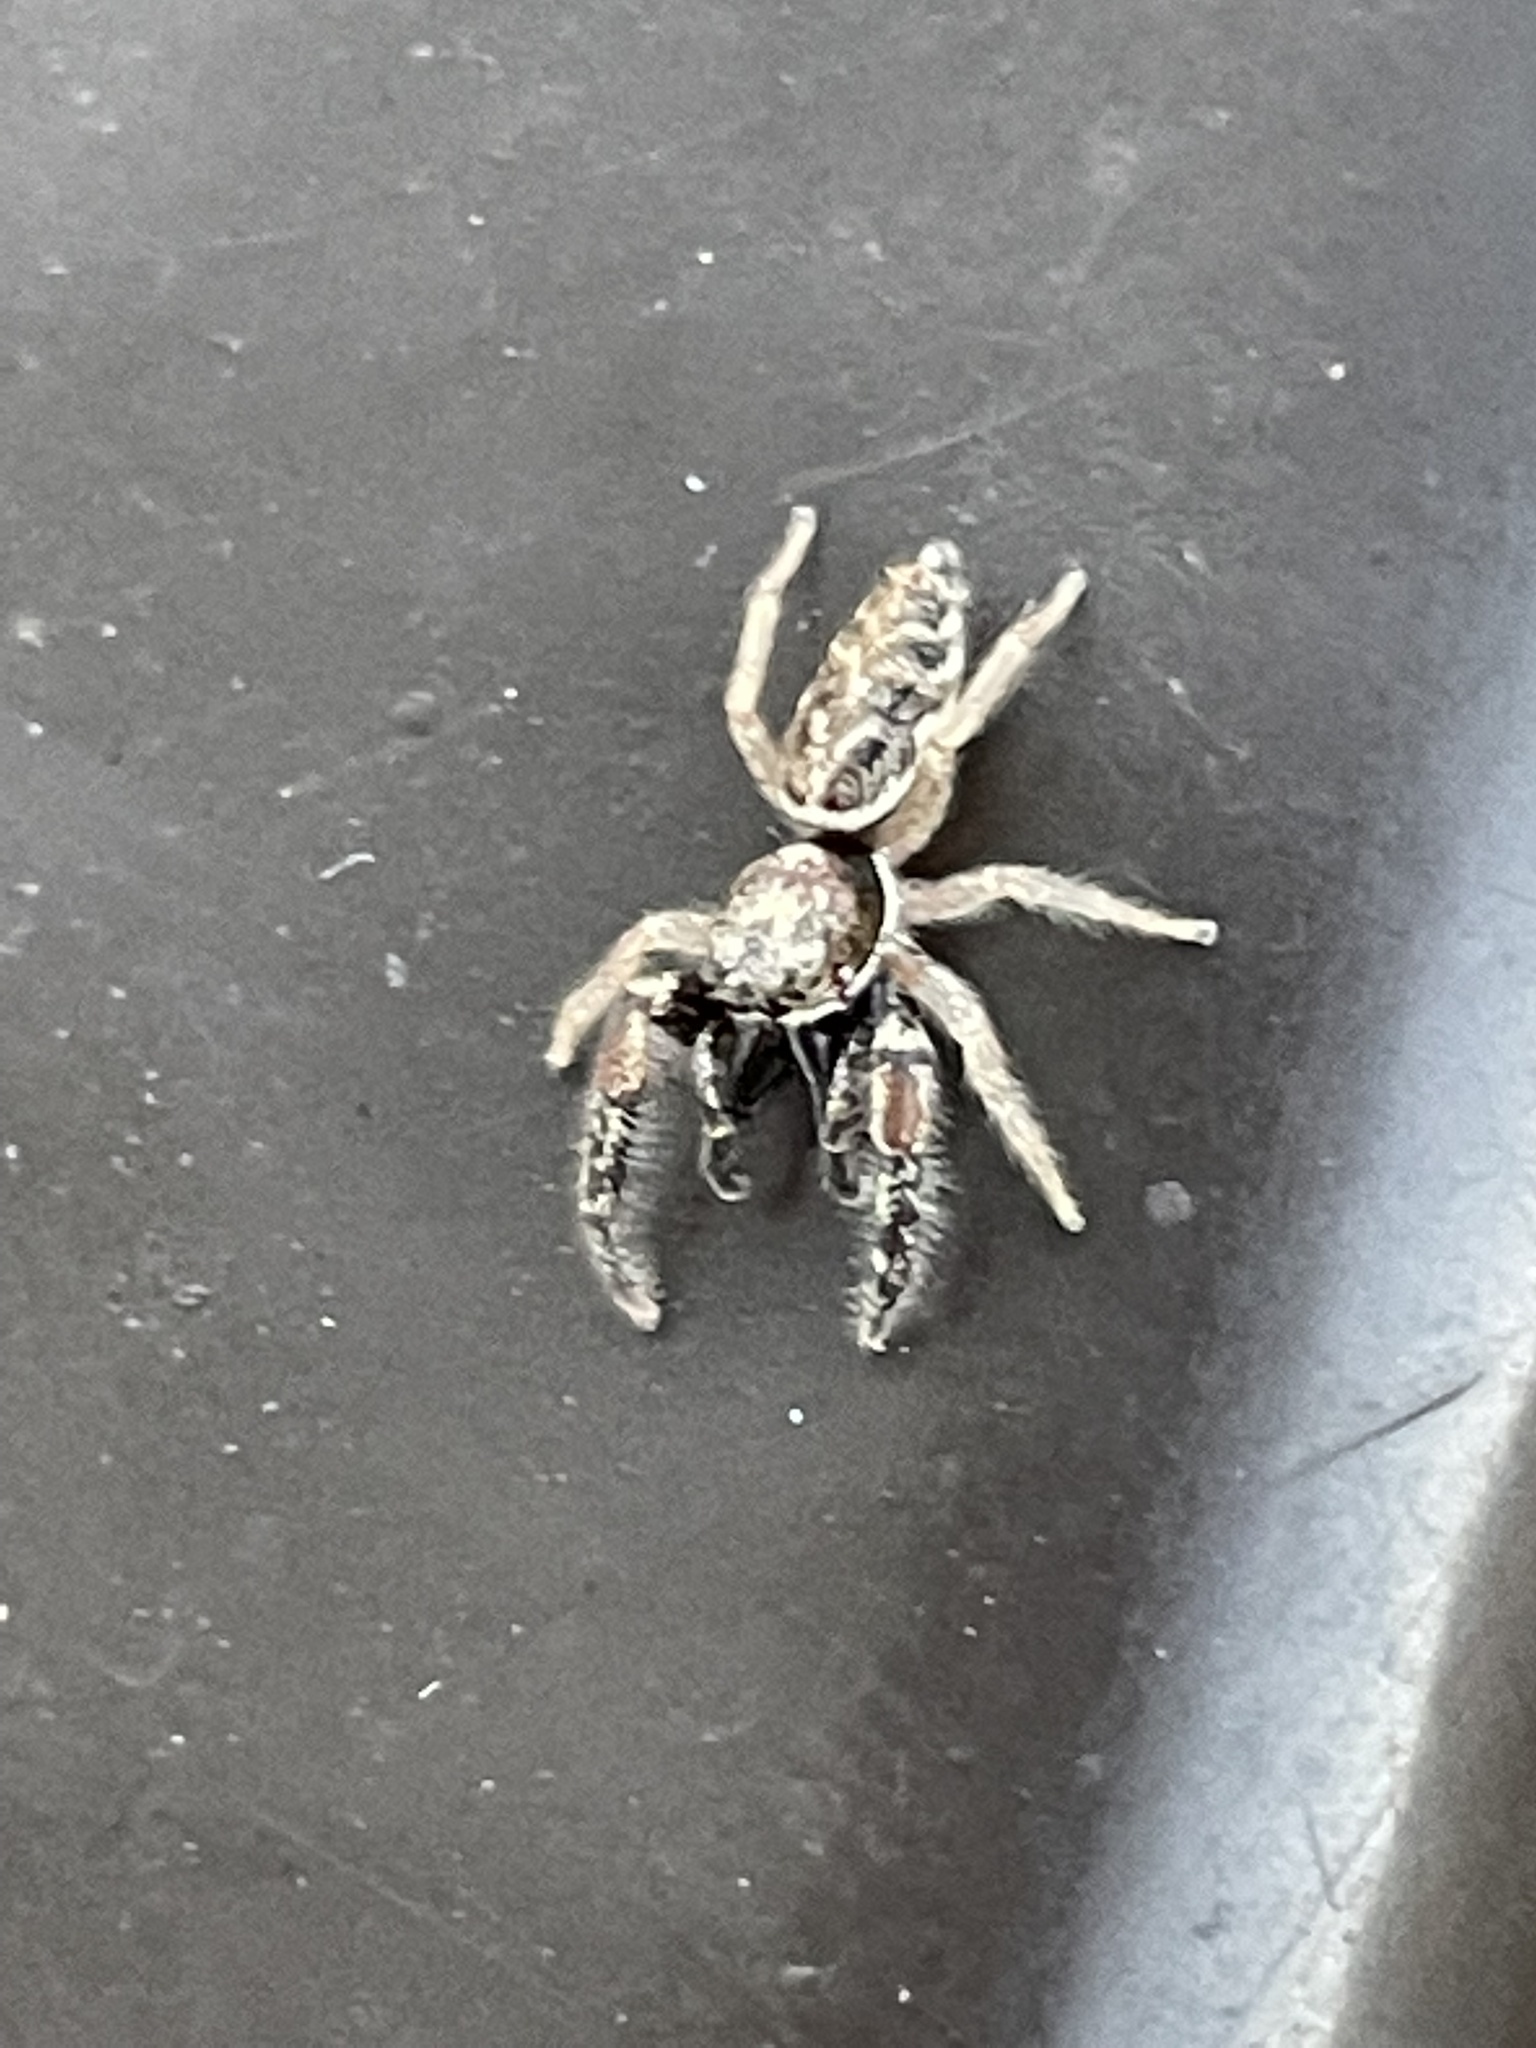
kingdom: Animalia
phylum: Arthropoda
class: Arachnida
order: Araneae
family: Salticidae
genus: Metaphidippus
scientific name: Metaphidippus siticulosus
